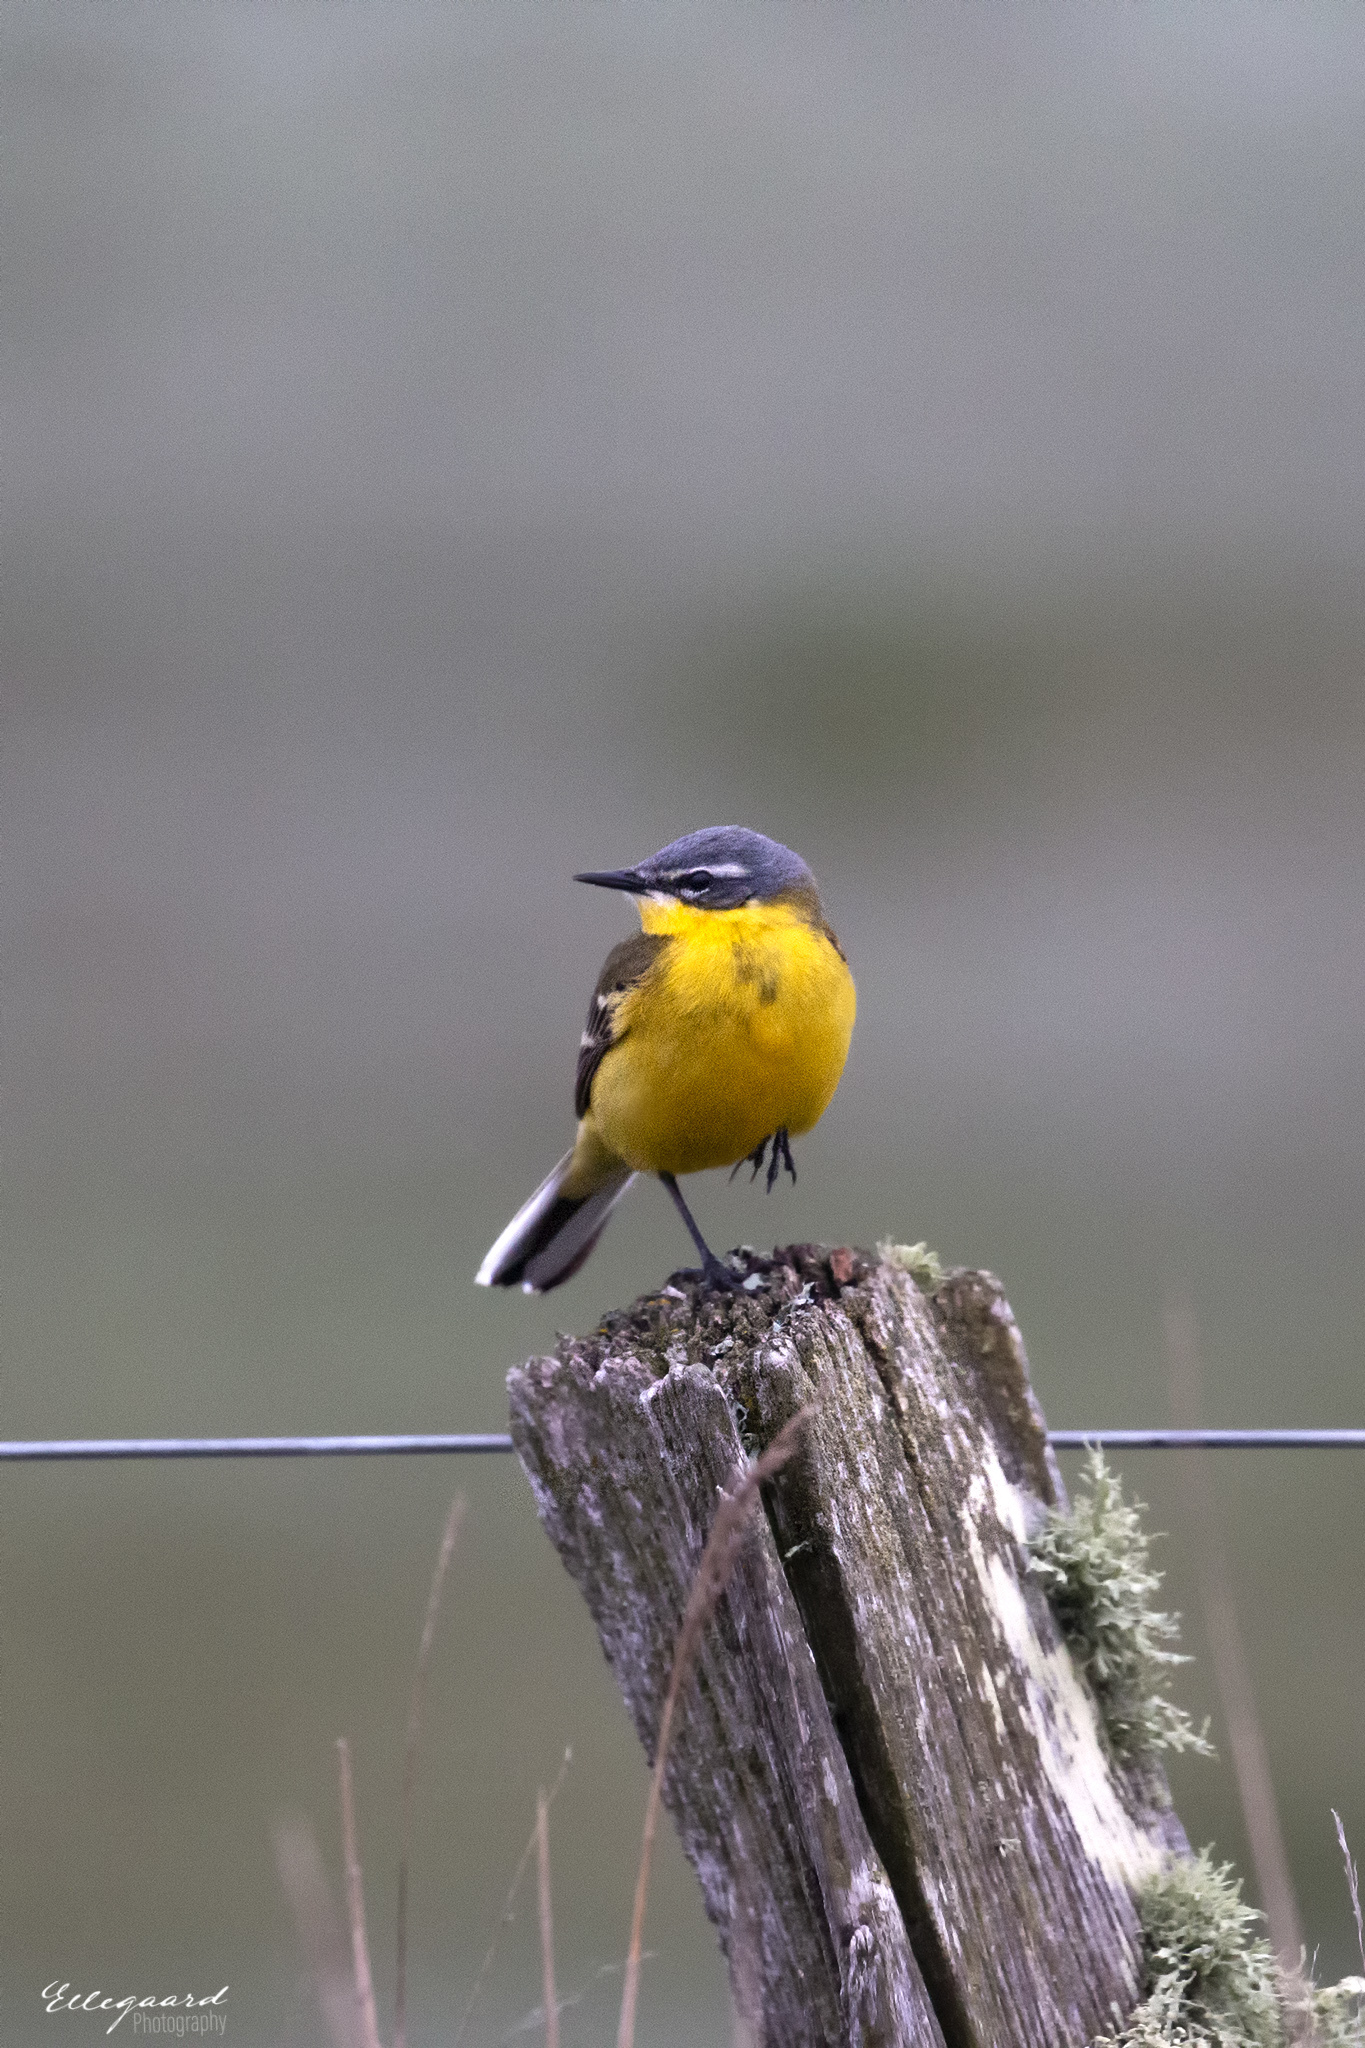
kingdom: Animalia
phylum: Chordata
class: Aves
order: Passeriformes
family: Motacillidae
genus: Motacilla
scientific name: Motacilla flava
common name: Western yellow wagtail
